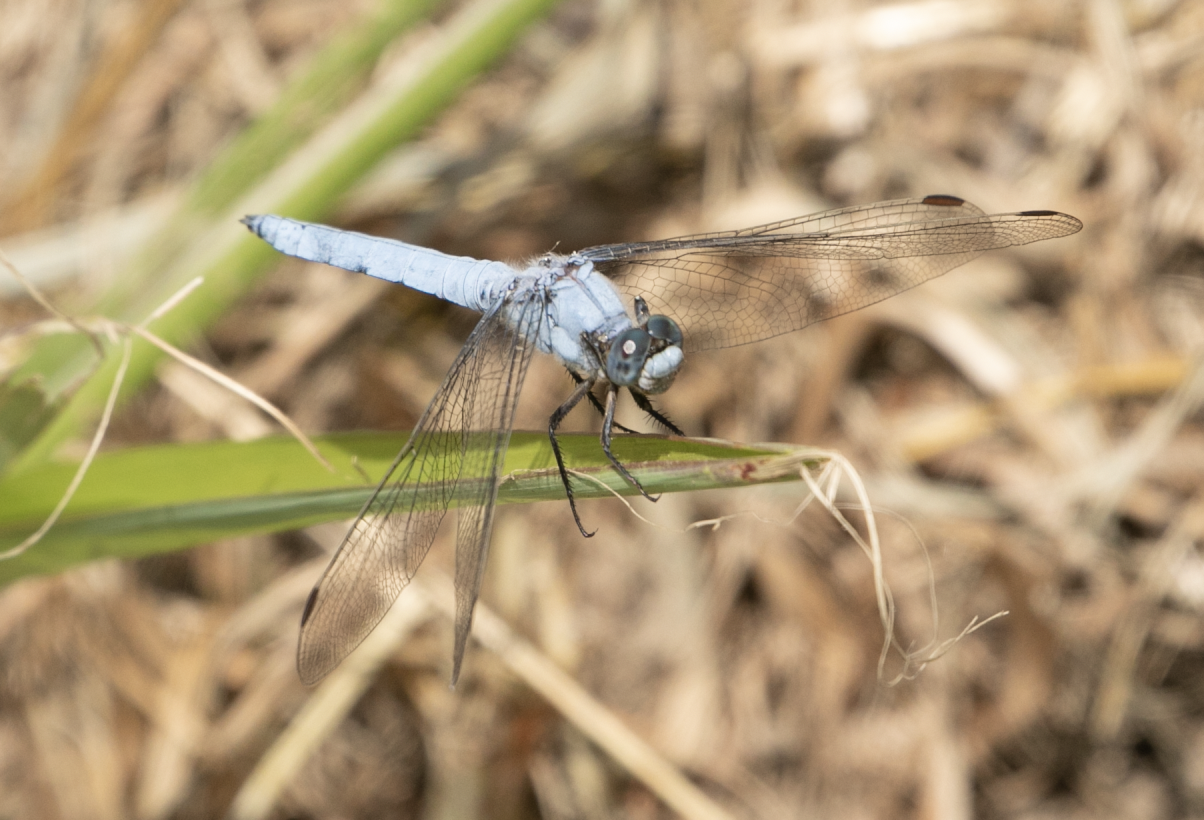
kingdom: Animalia
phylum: Arthropoda
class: Insecta
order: Odonata
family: Libellulidae
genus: Orthetrum
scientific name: Orthetrum brunneum
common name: Southern skimmer
